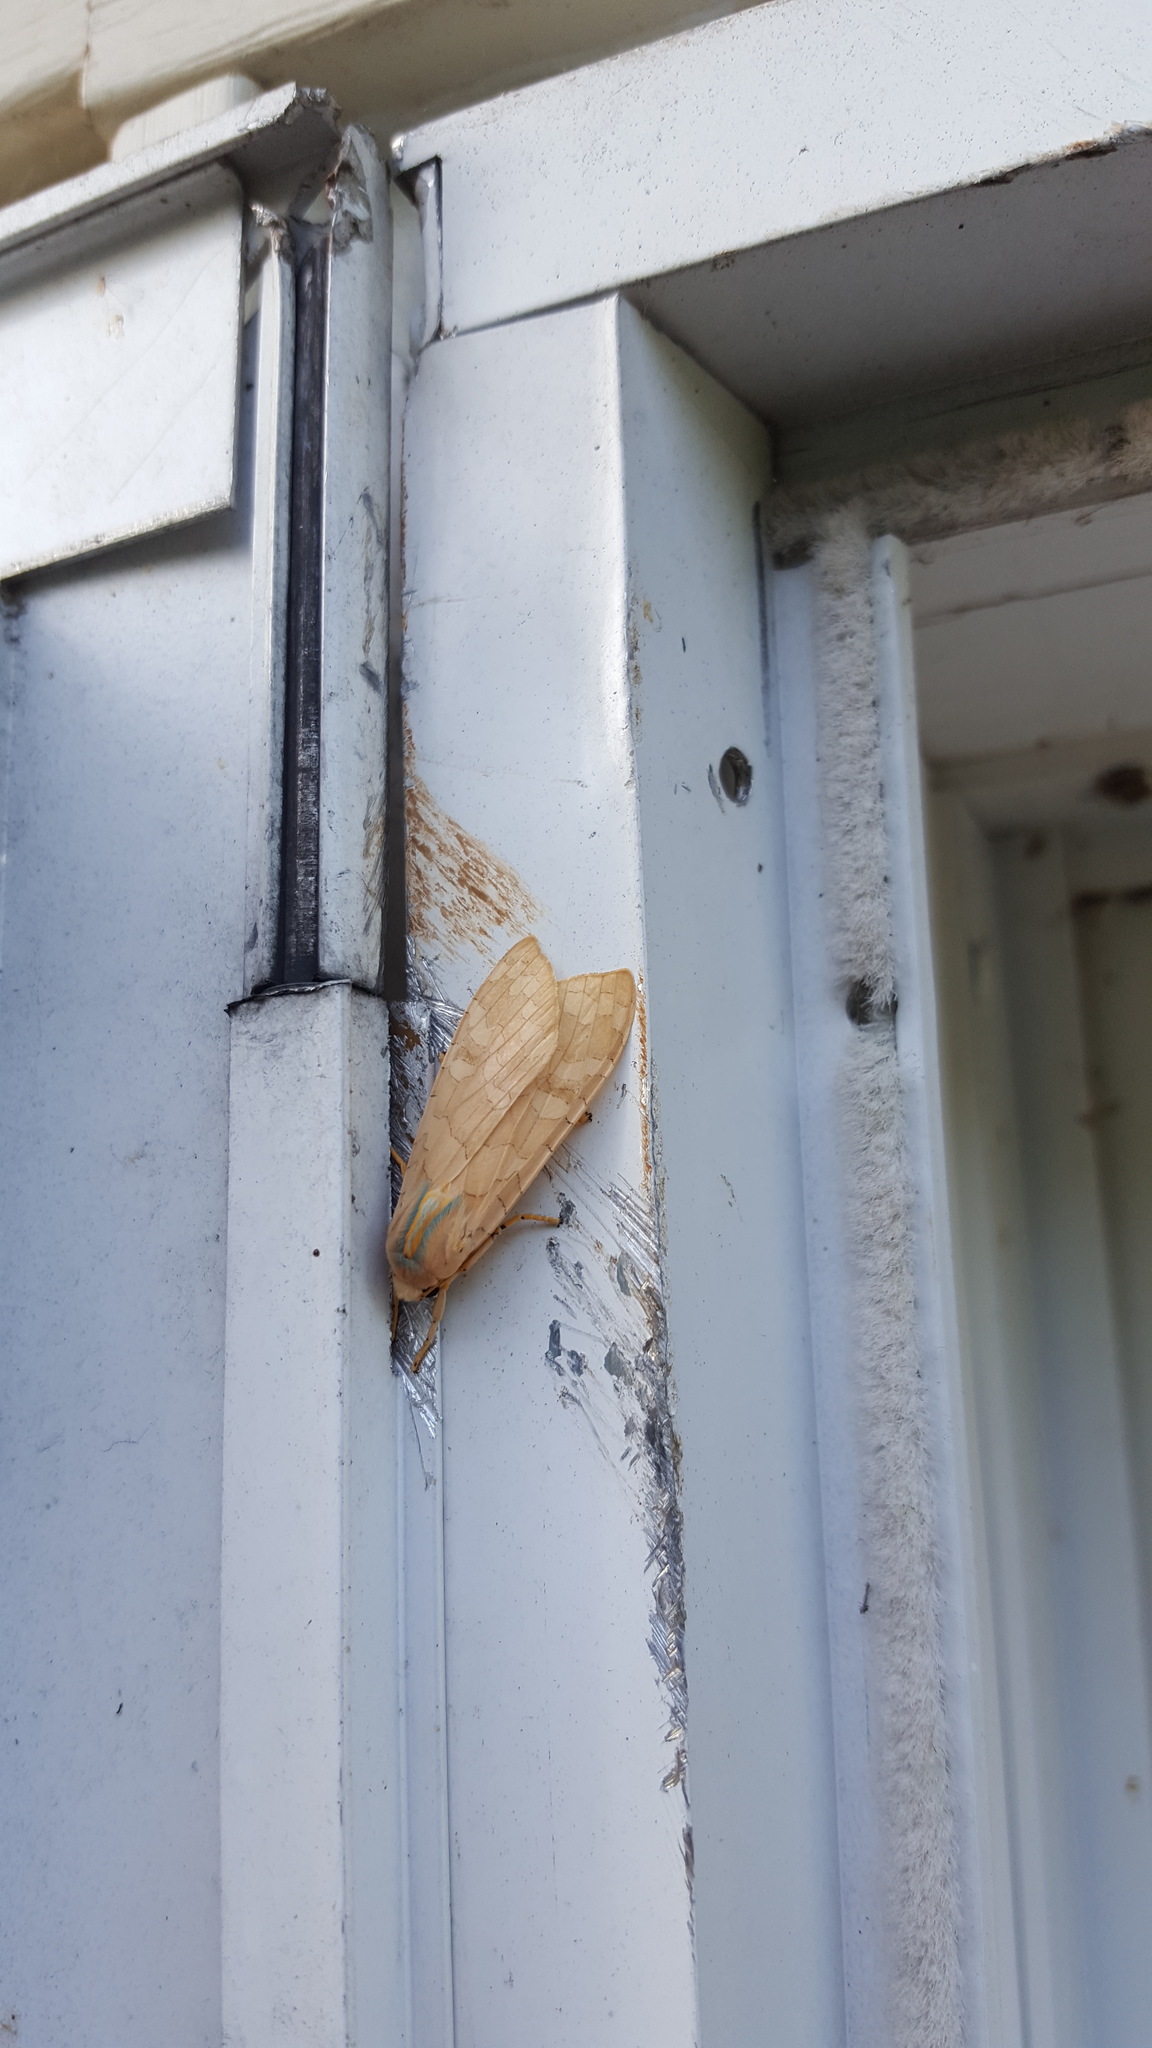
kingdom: Animalia
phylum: Arthropoda
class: Insecta
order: Lepidoptera
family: Erebidae
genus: Halysidota
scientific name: Halysidota
